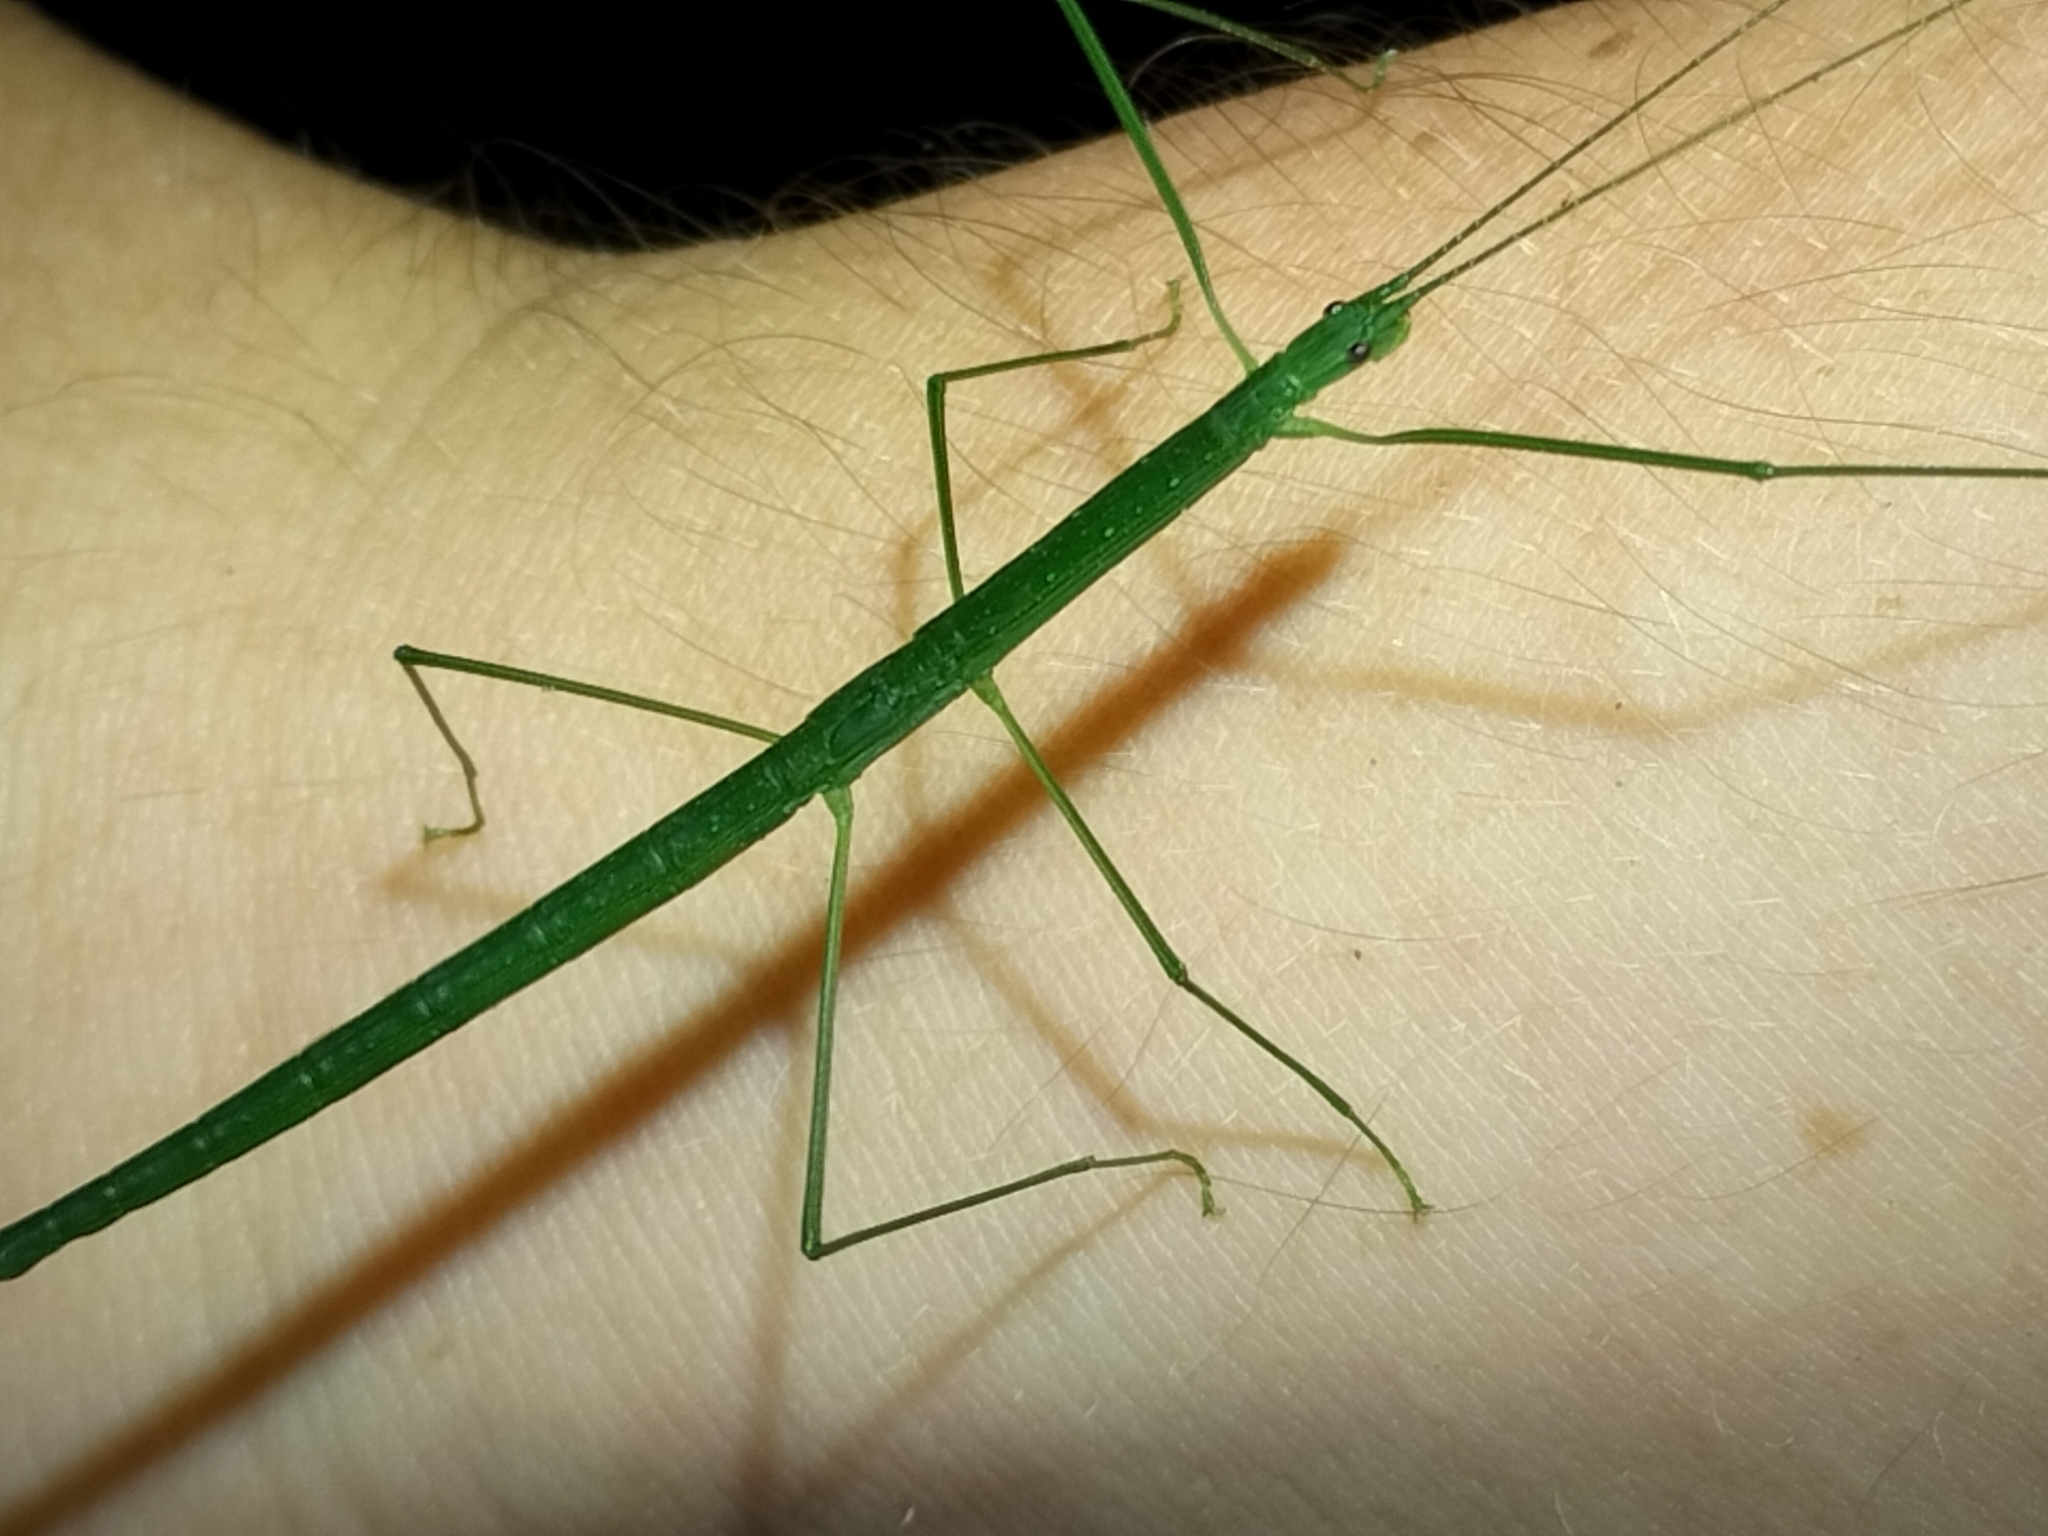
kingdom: Animalia
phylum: Arthropoda
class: Insecta
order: Phasmida
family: Lonchodidae
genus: Sipyloidea
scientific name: Sipyloidea rentzi
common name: Rentz's sipyloidea stick-insect
